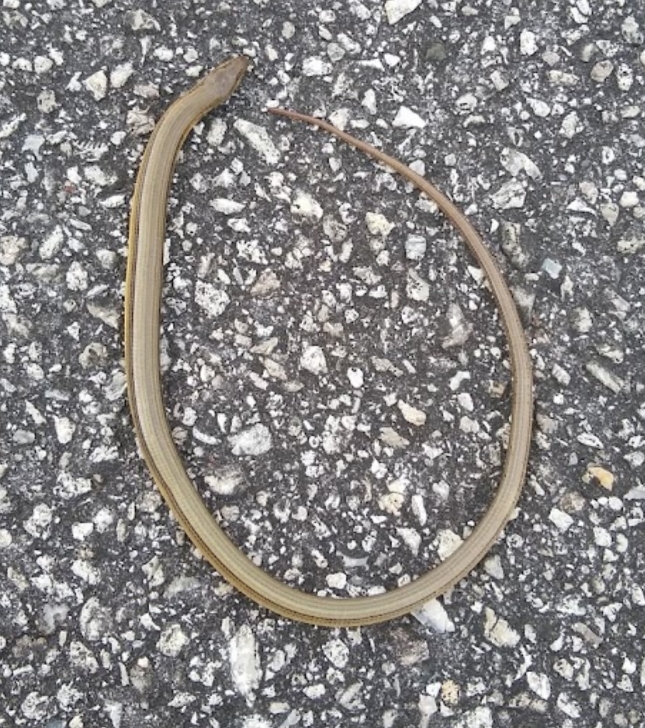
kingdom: Animalia
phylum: Chordata
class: Squamata
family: Anguidae
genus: Ophisaurus
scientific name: Ophisaurus ventralis
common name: Eastern glass lizard
